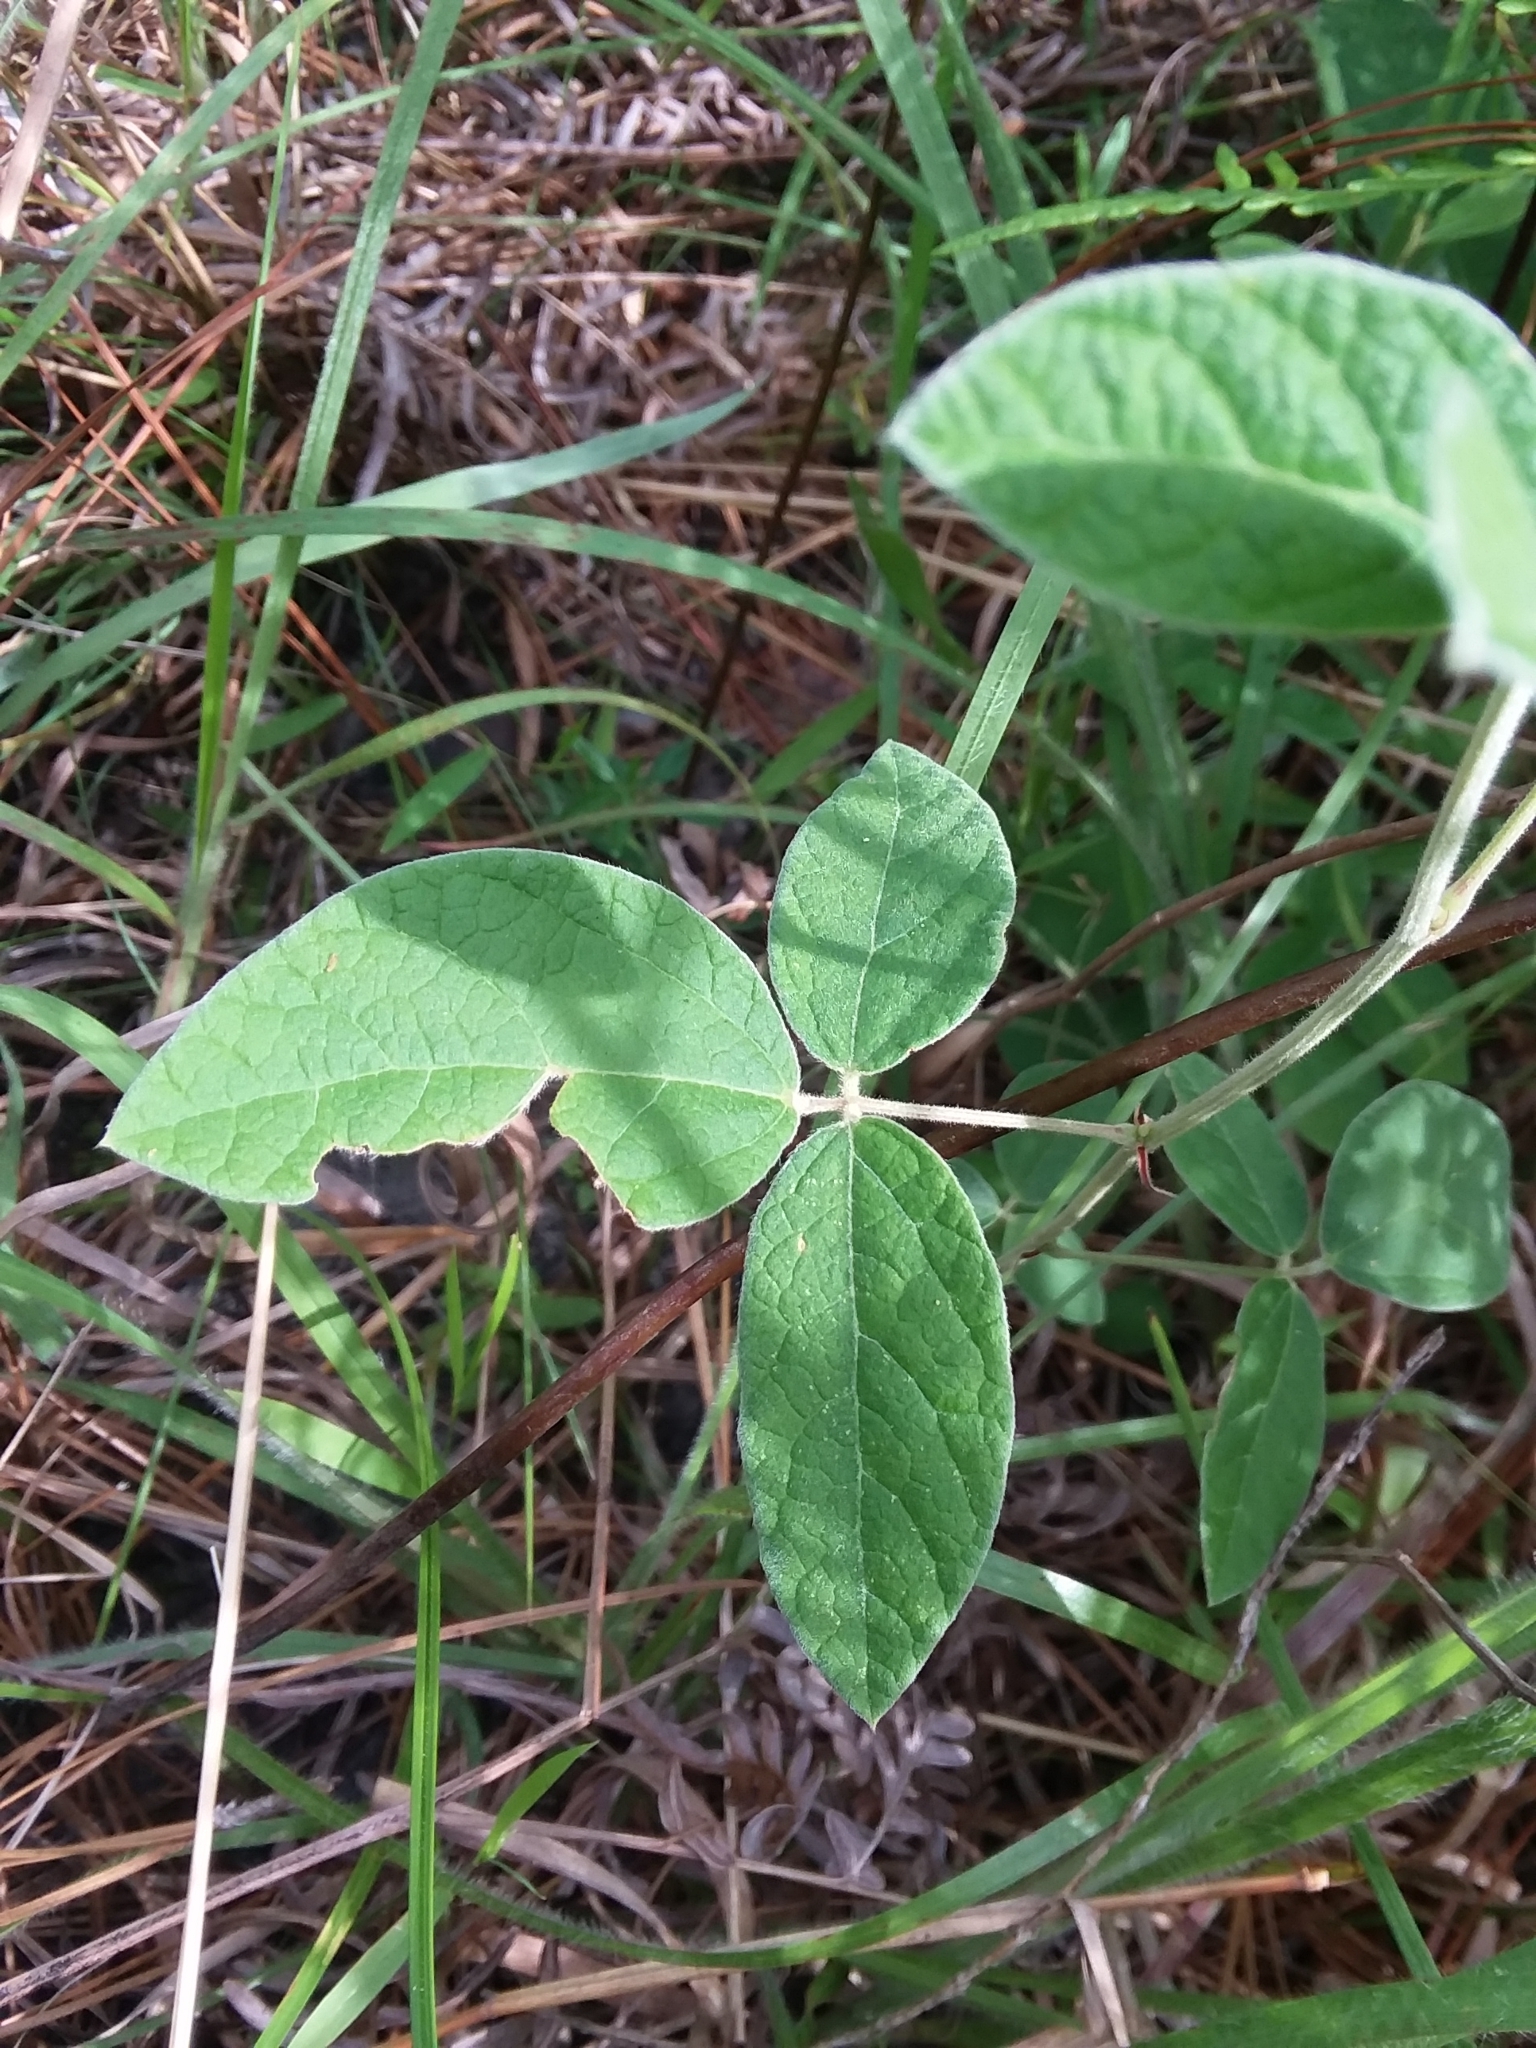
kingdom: Plantae
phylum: Tracheophyta
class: Magnoliopsida
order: Fabales
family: Fabaceae
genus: Rhynchosia
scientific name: Rhynchosia tomentosa
